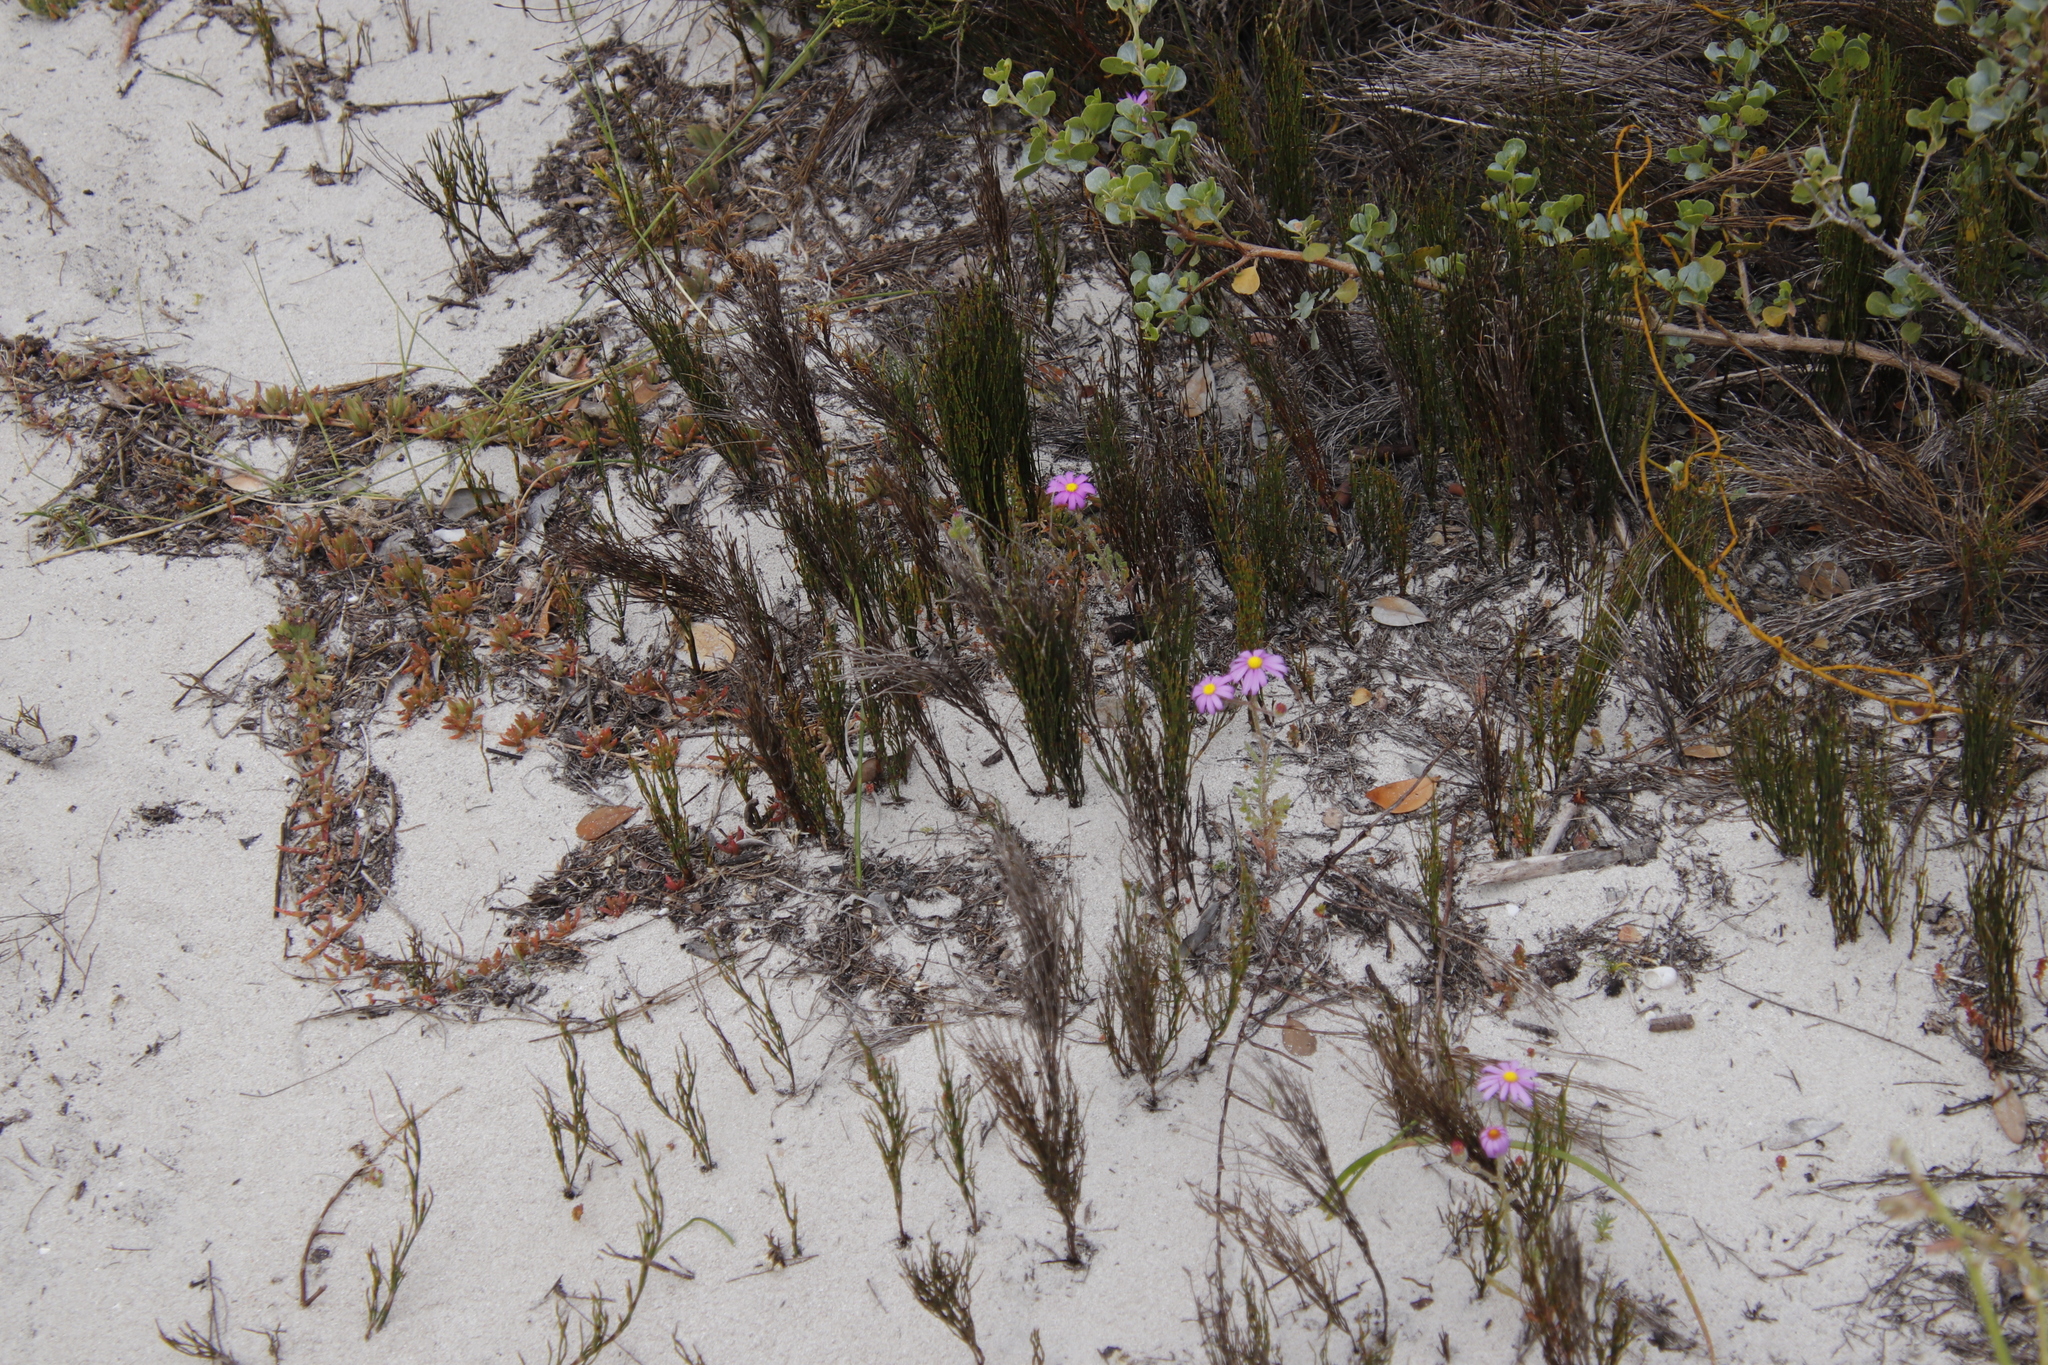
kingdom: Plantae
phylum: Tracheophyta
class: Liliopsida
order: Poales
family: Restionaceae
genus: Elegia
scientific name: Elegia microcarpa
